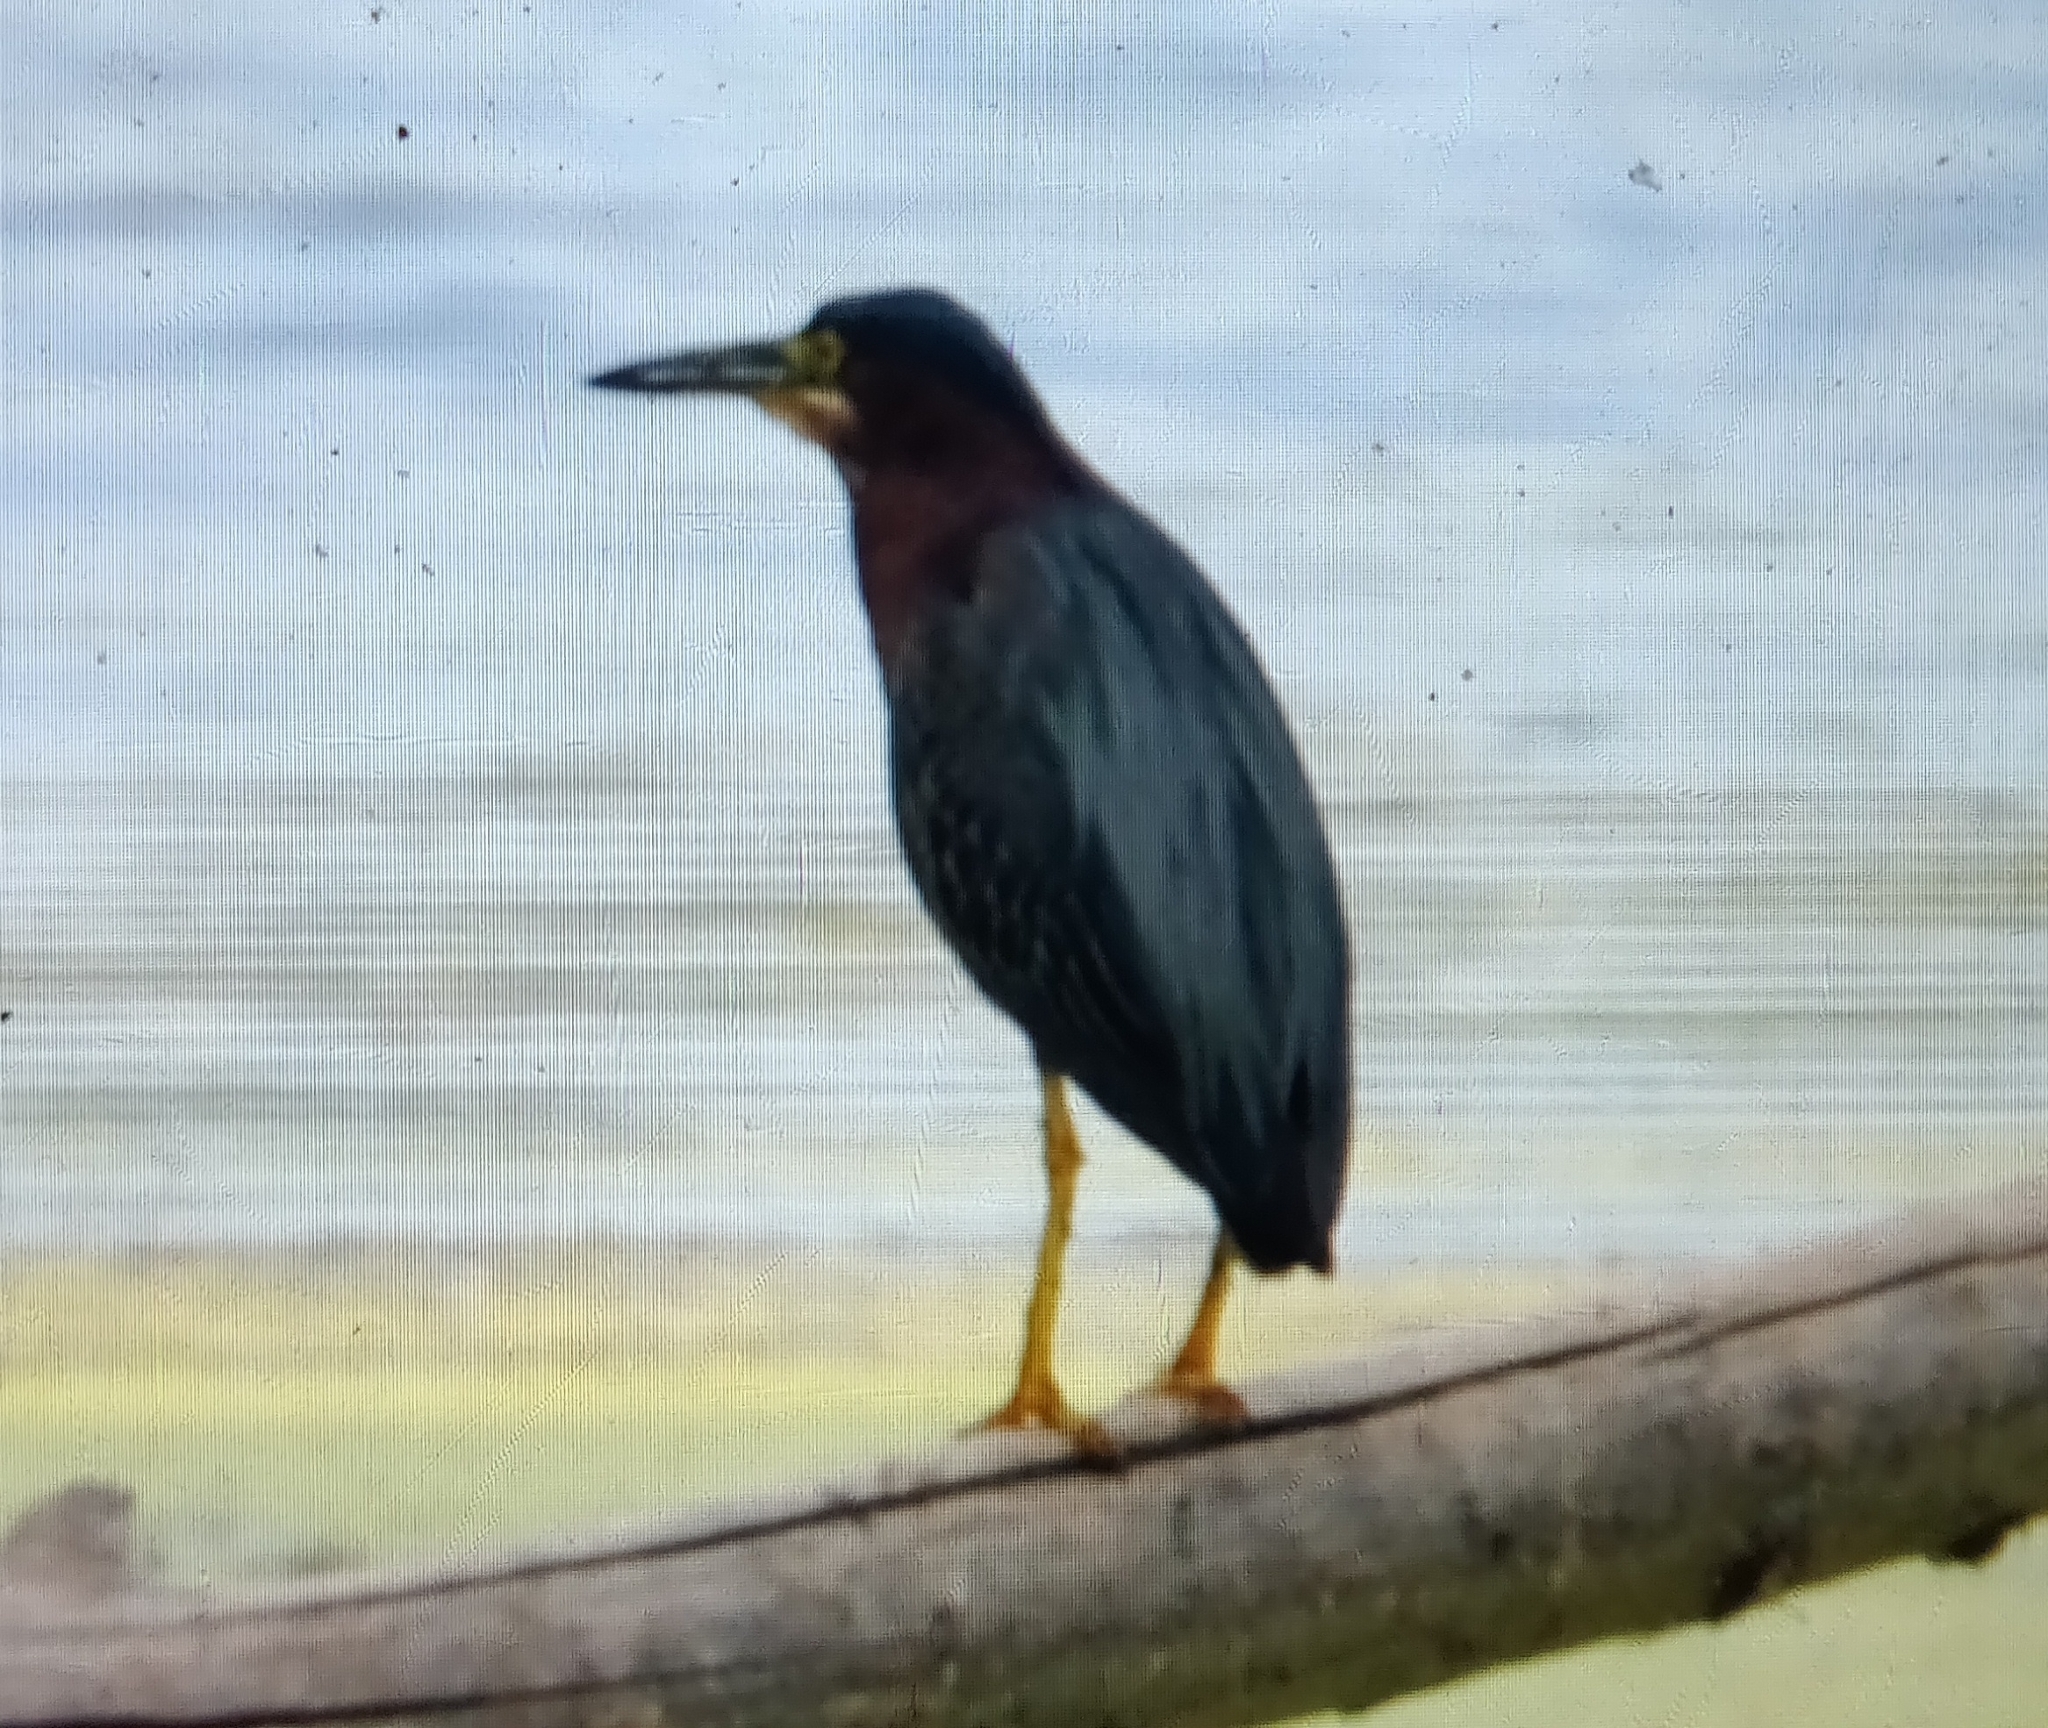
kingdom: Animalia
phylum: Chordata
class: Aves
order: Pelecaniformes
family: Ardeidae
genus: Butorides
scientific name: Butorides virescens
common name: Green heron
